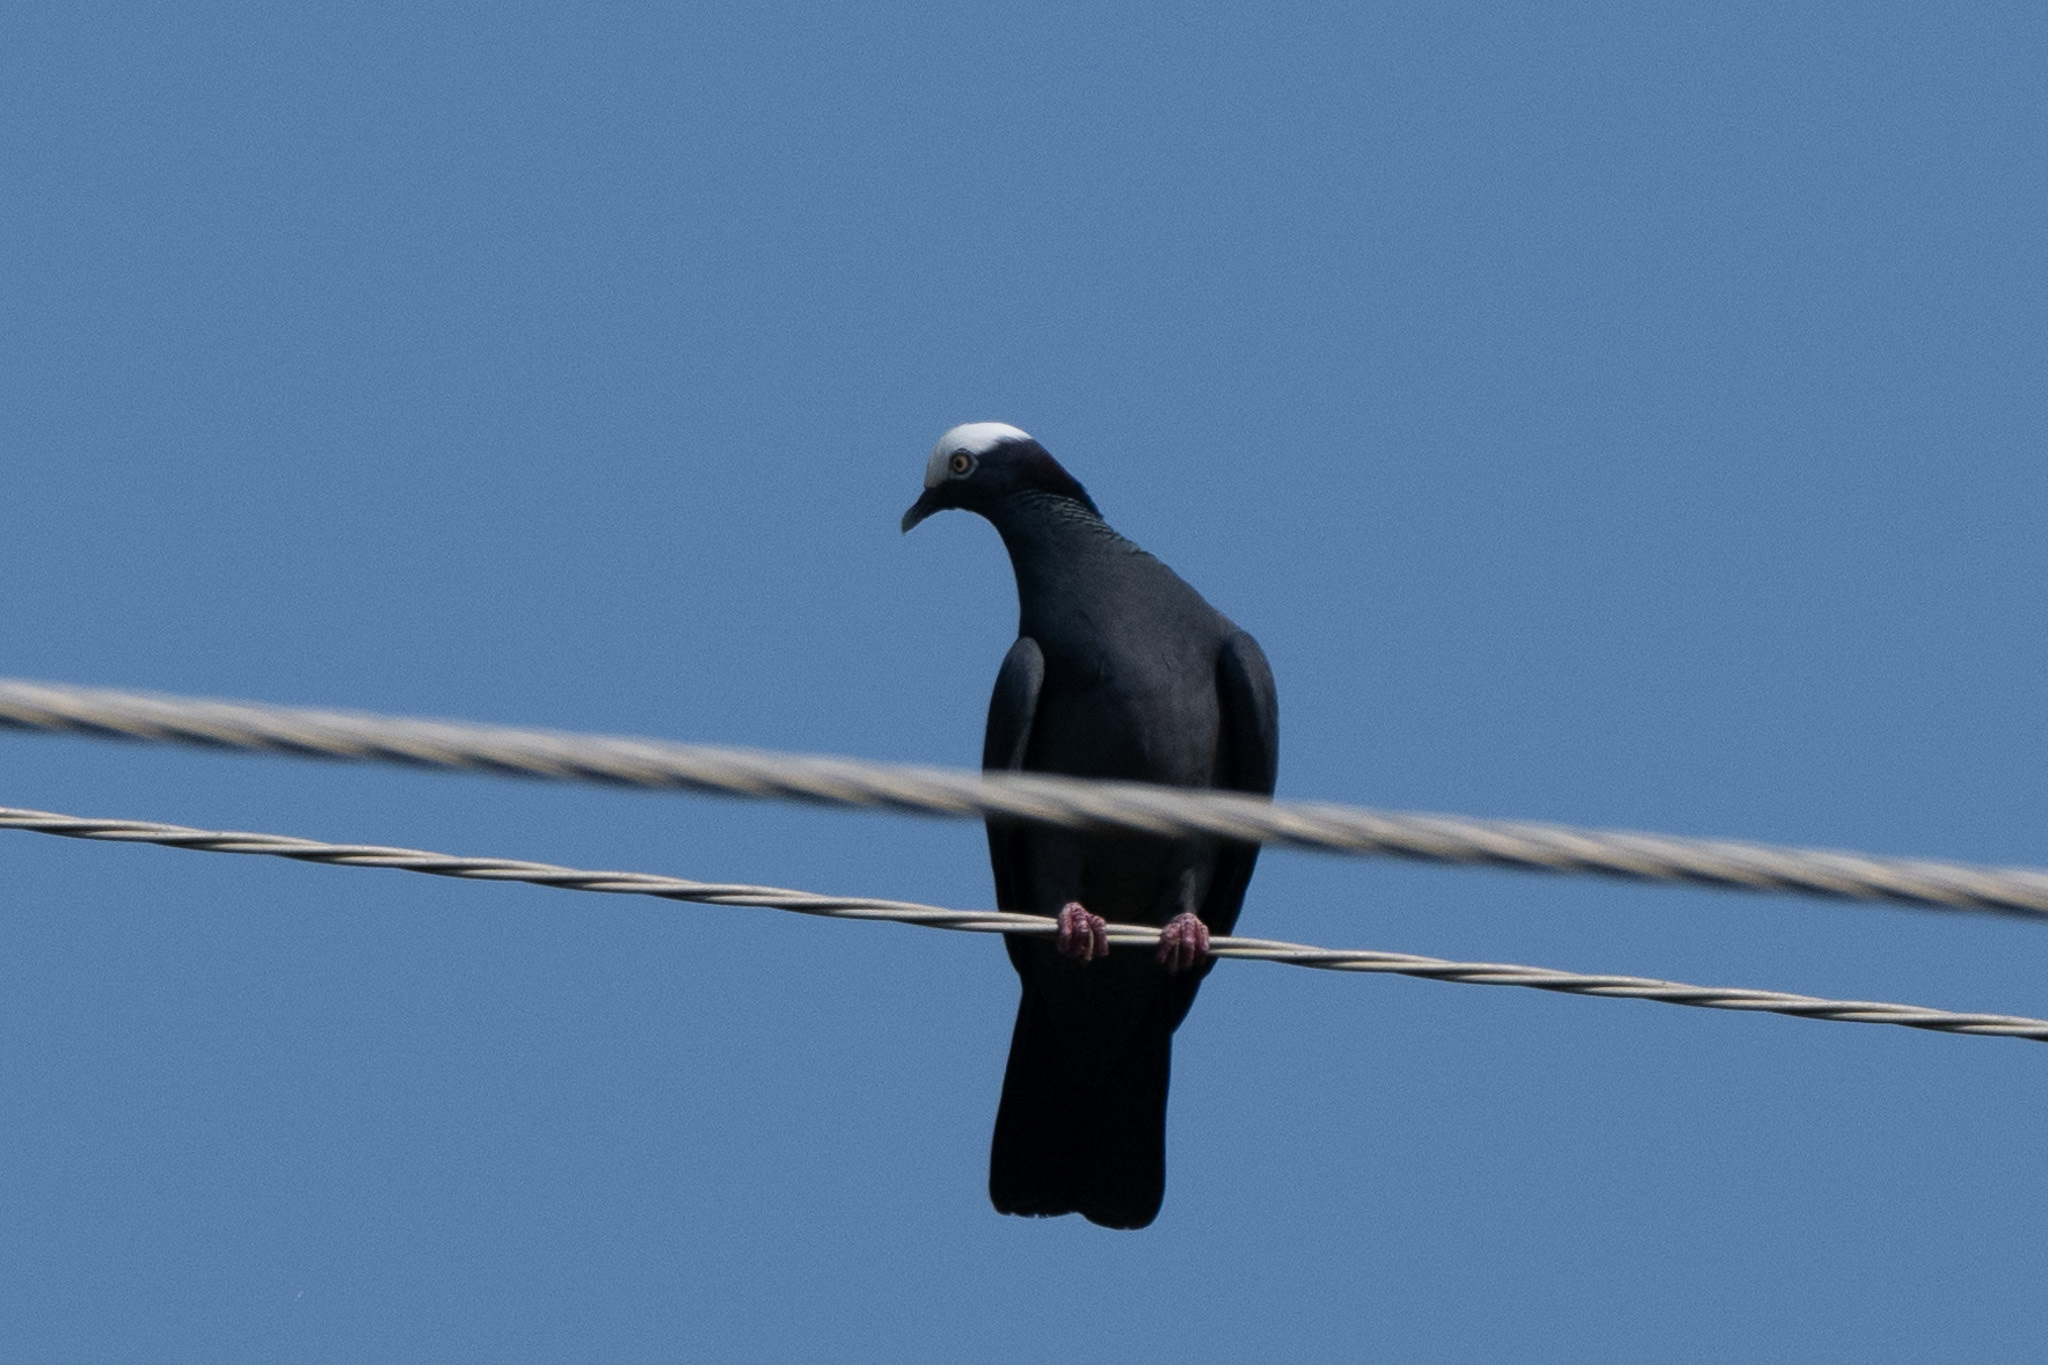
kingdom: Animalia
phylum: Chordata
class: Aves
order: Columbiformes
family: Columbidae
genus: Patagioenas
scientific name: Patagioenas leucocephala
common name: White-crowned pigeon
